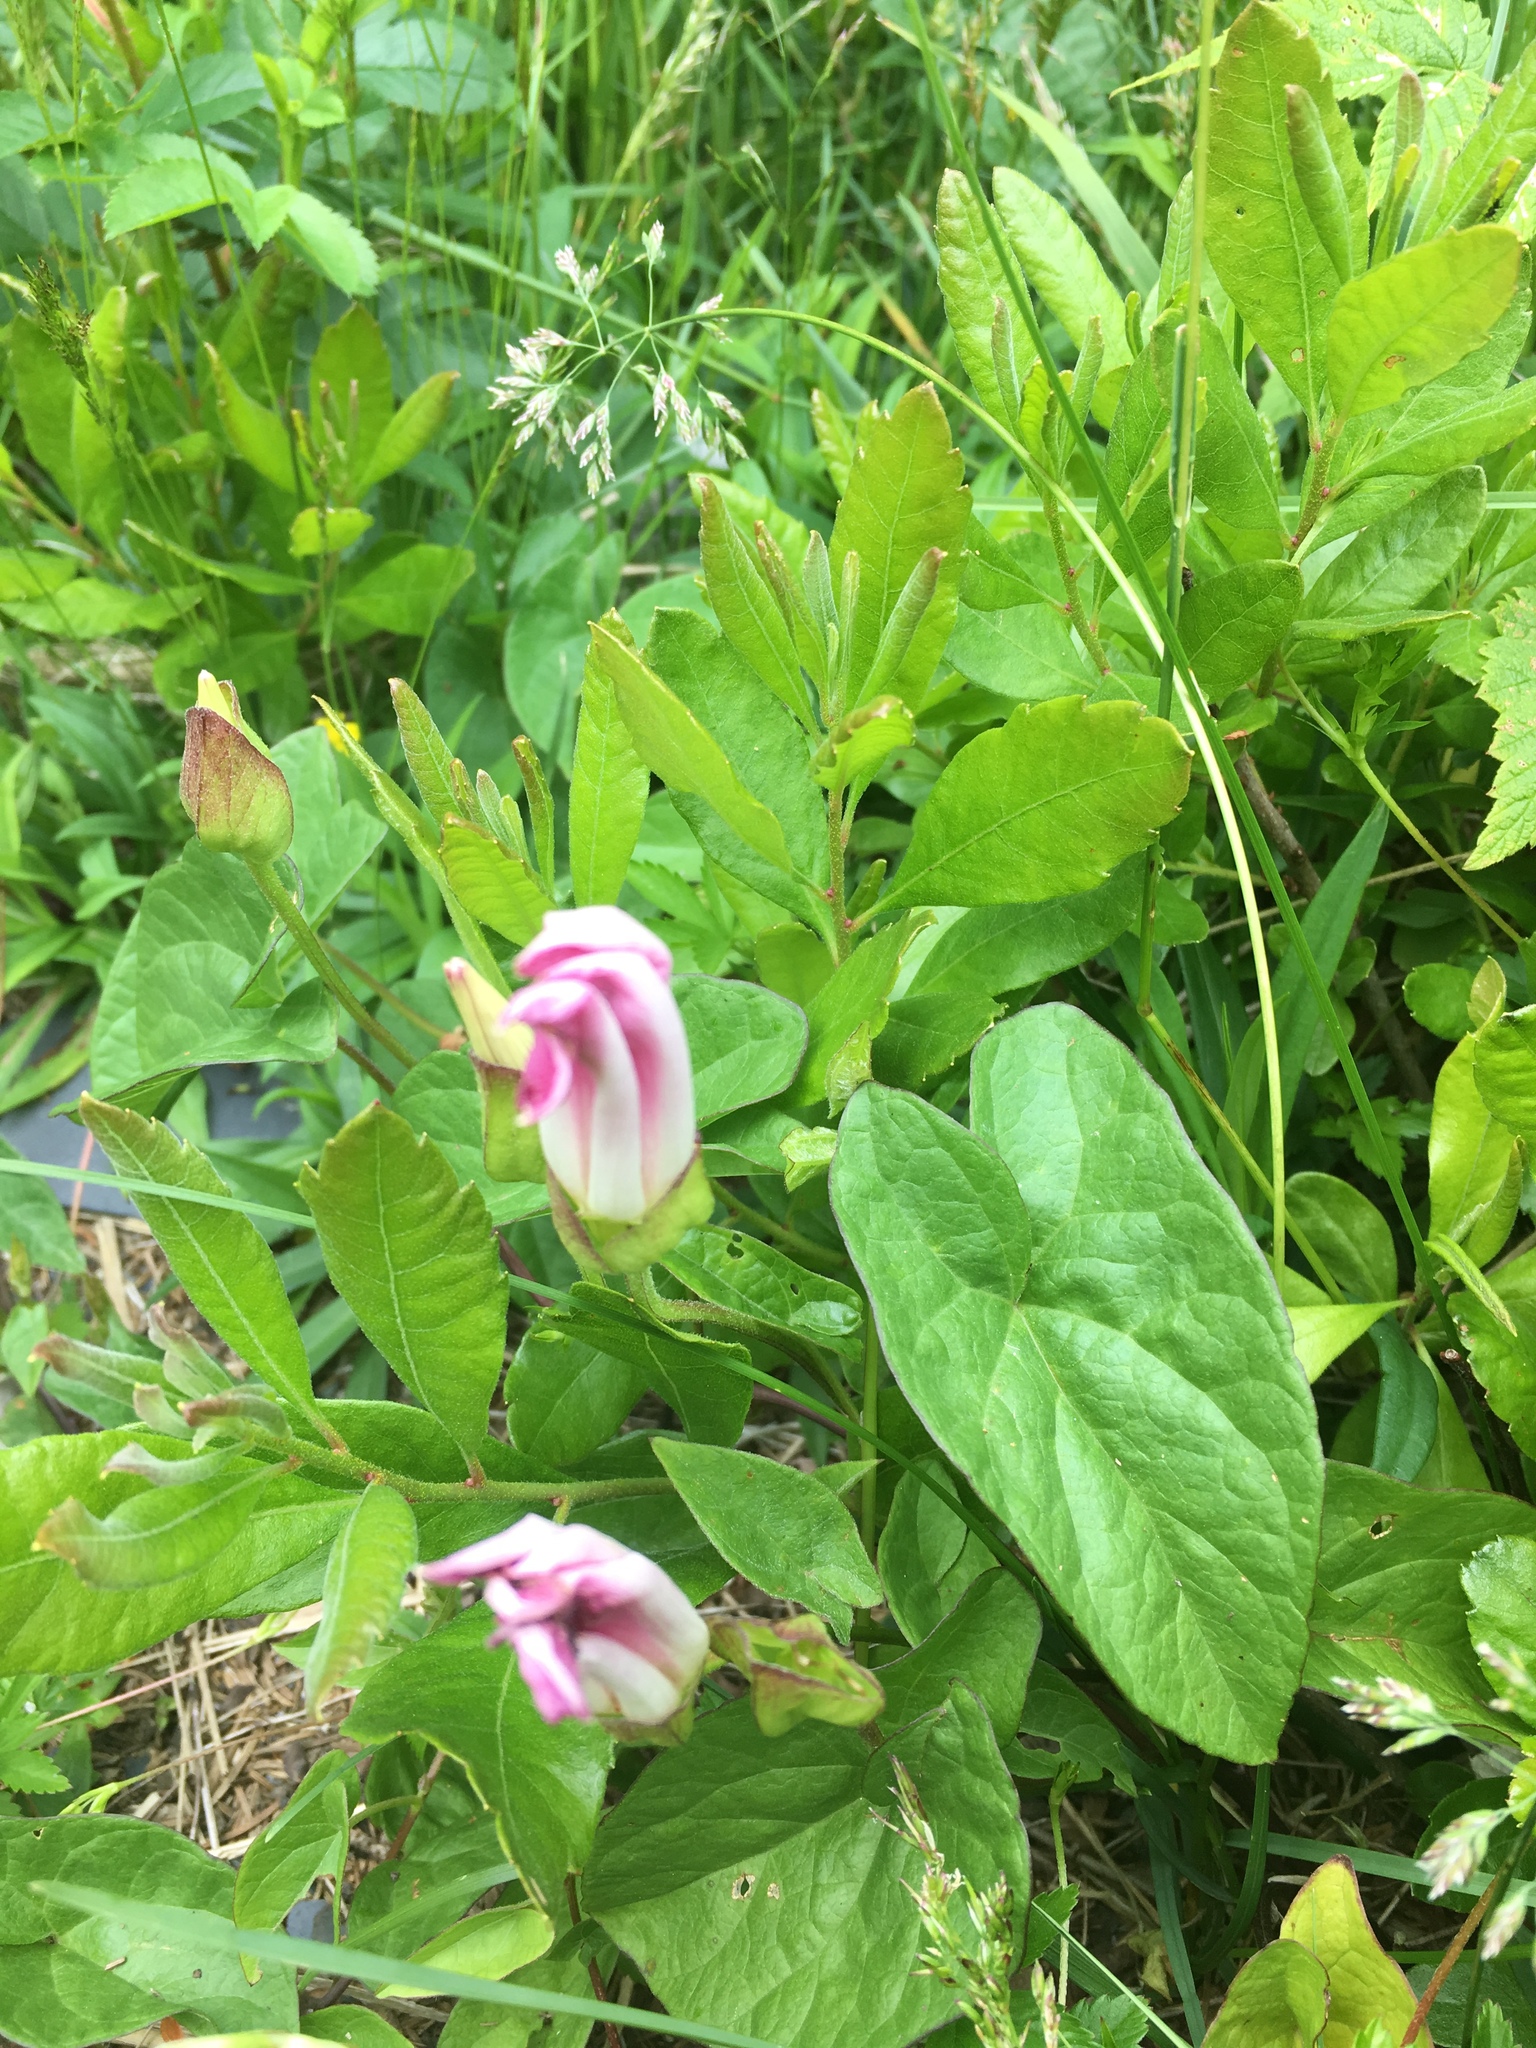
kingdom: Plantae
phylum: Tracheophyta
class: Magnoliopsida
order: Solanales
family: Convolvulaceae
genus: Calystegia
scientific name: Calystegia sepium
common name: Hedge bindweed
